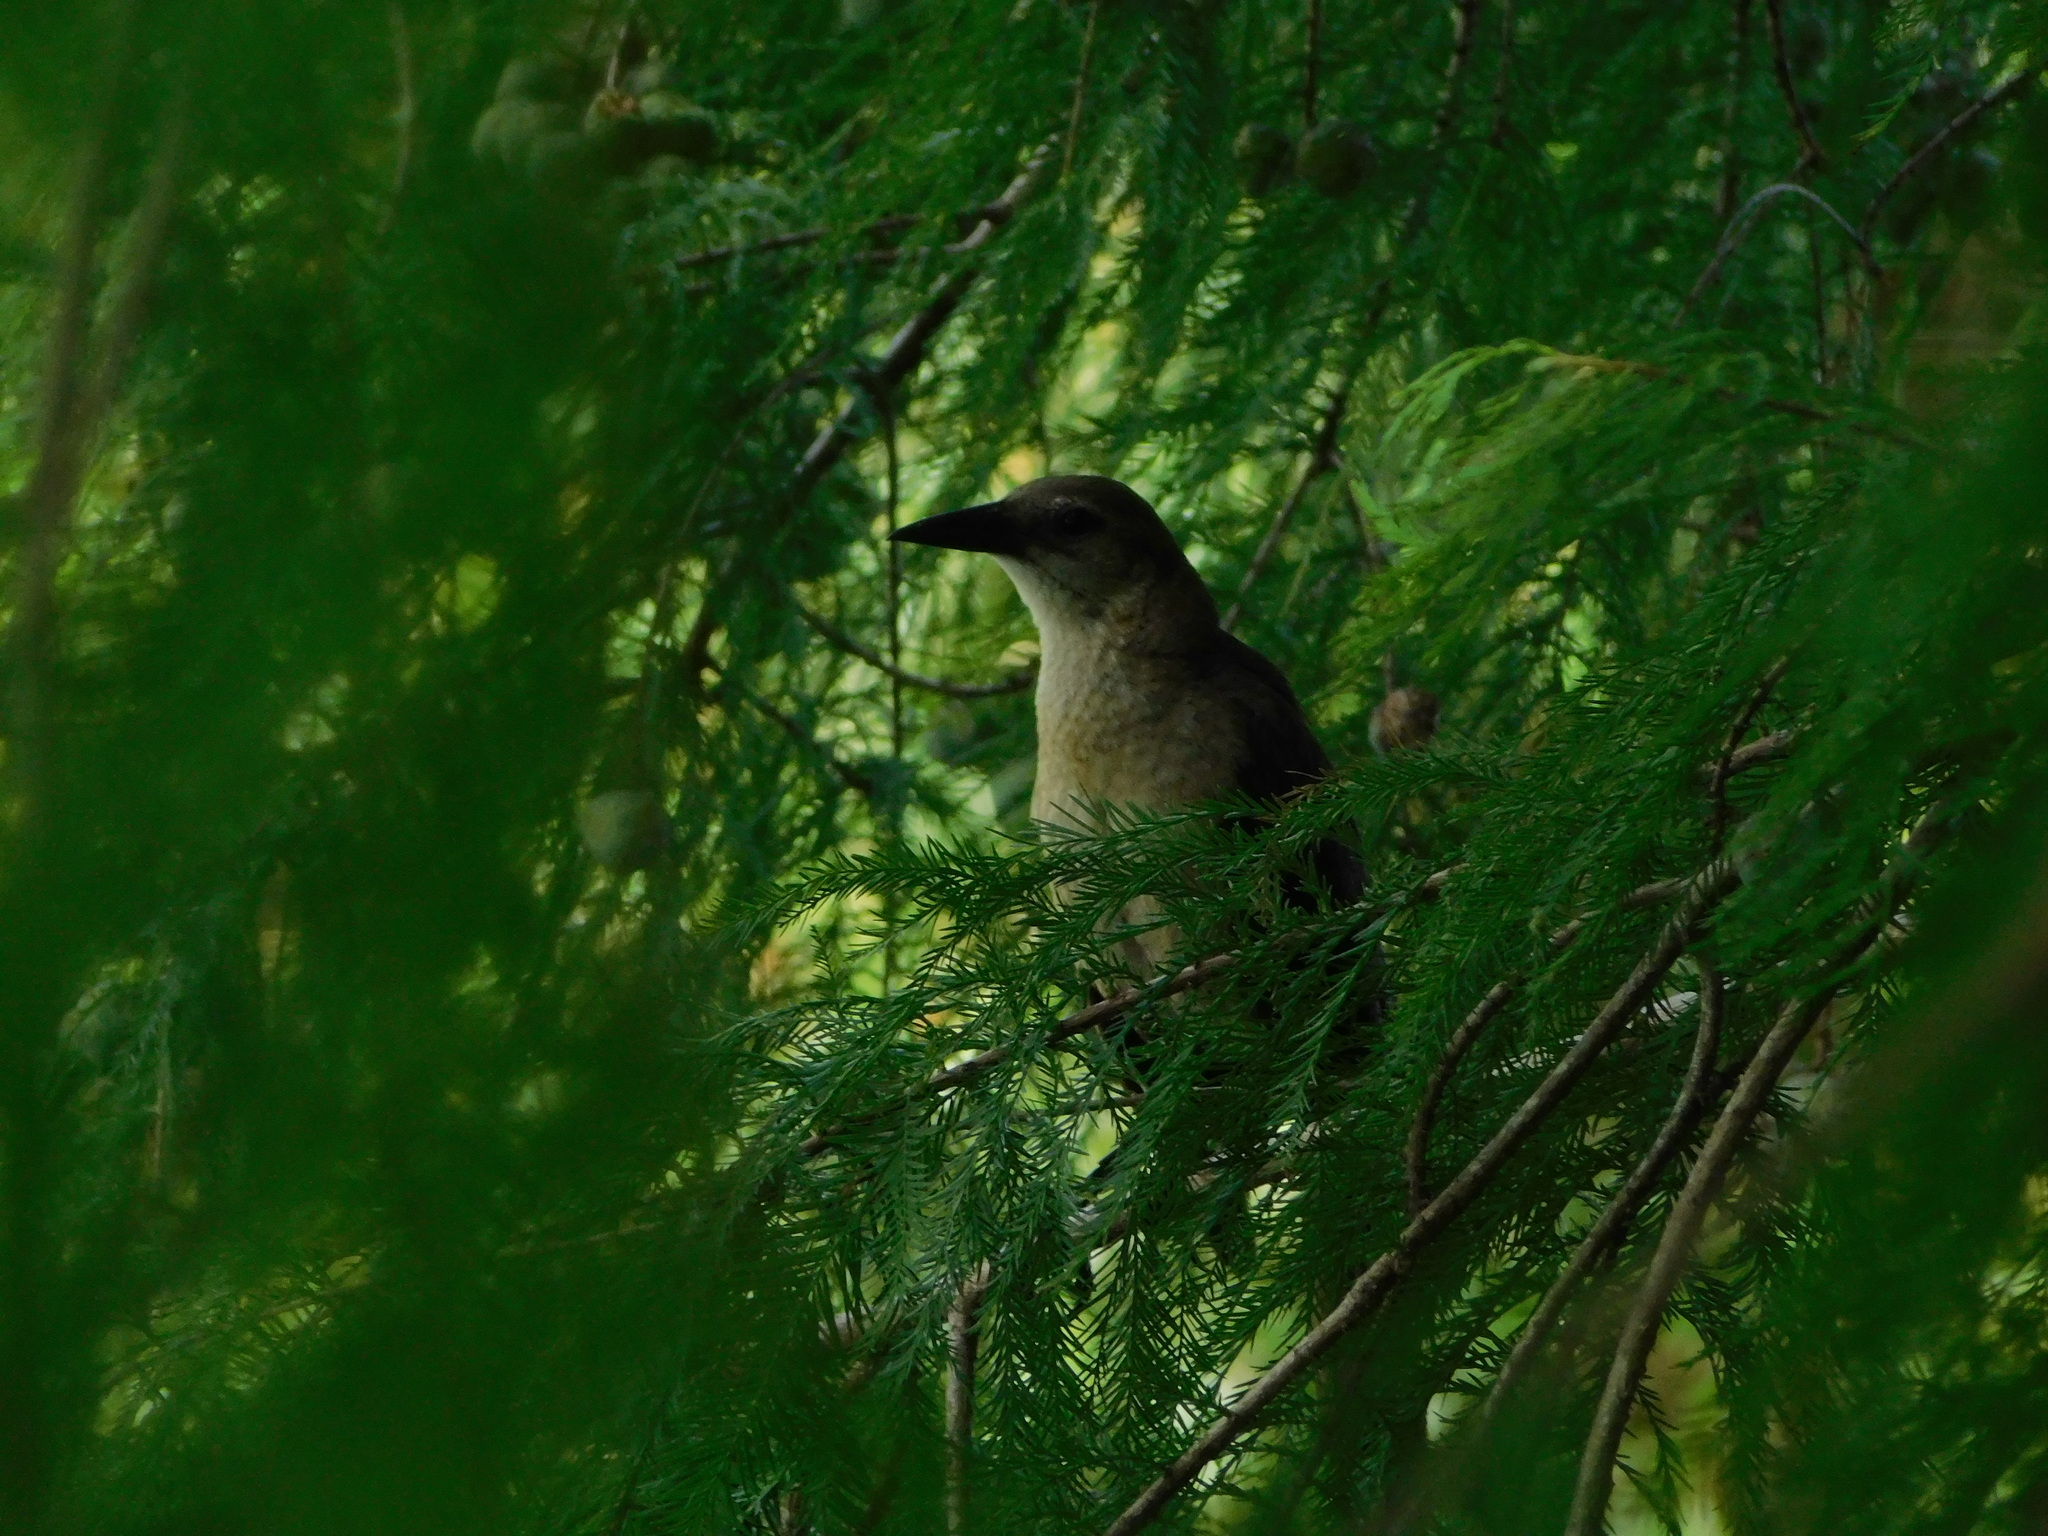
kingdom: Animalia
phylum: Chordata
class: Aves
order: Passeriformes
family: Icteridae
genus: Quiscalus
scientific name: Quiscalus major
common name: Boat-tailed grackle
